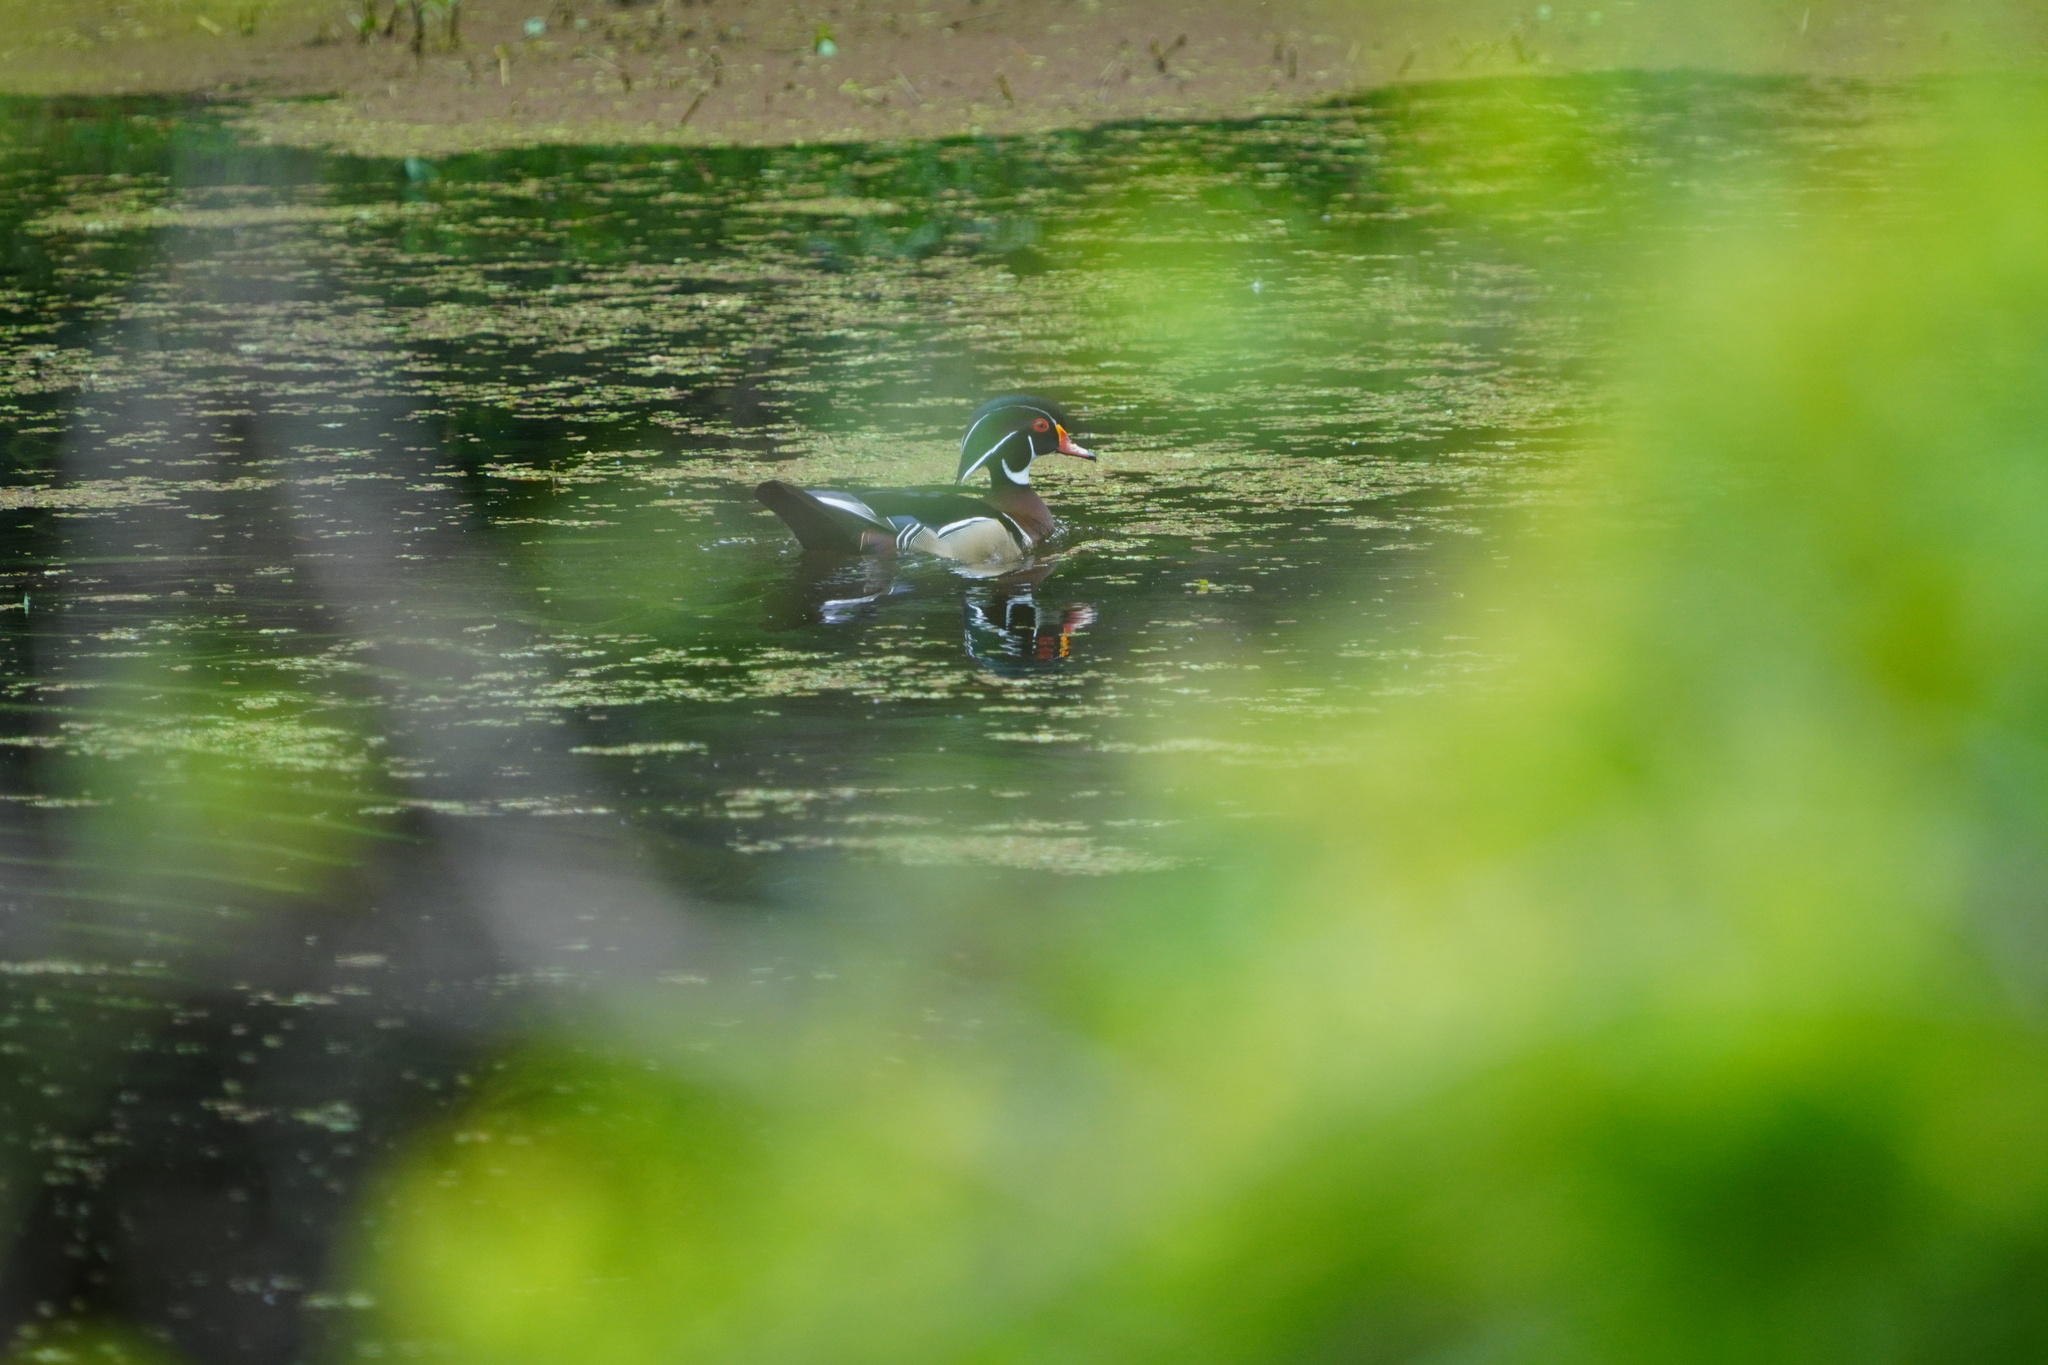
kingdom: Animalia
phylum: Chordata
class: Aves
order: Anseriformes
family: Anatidae
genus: Aix
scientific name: Aix sponsa
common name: Wood duck
